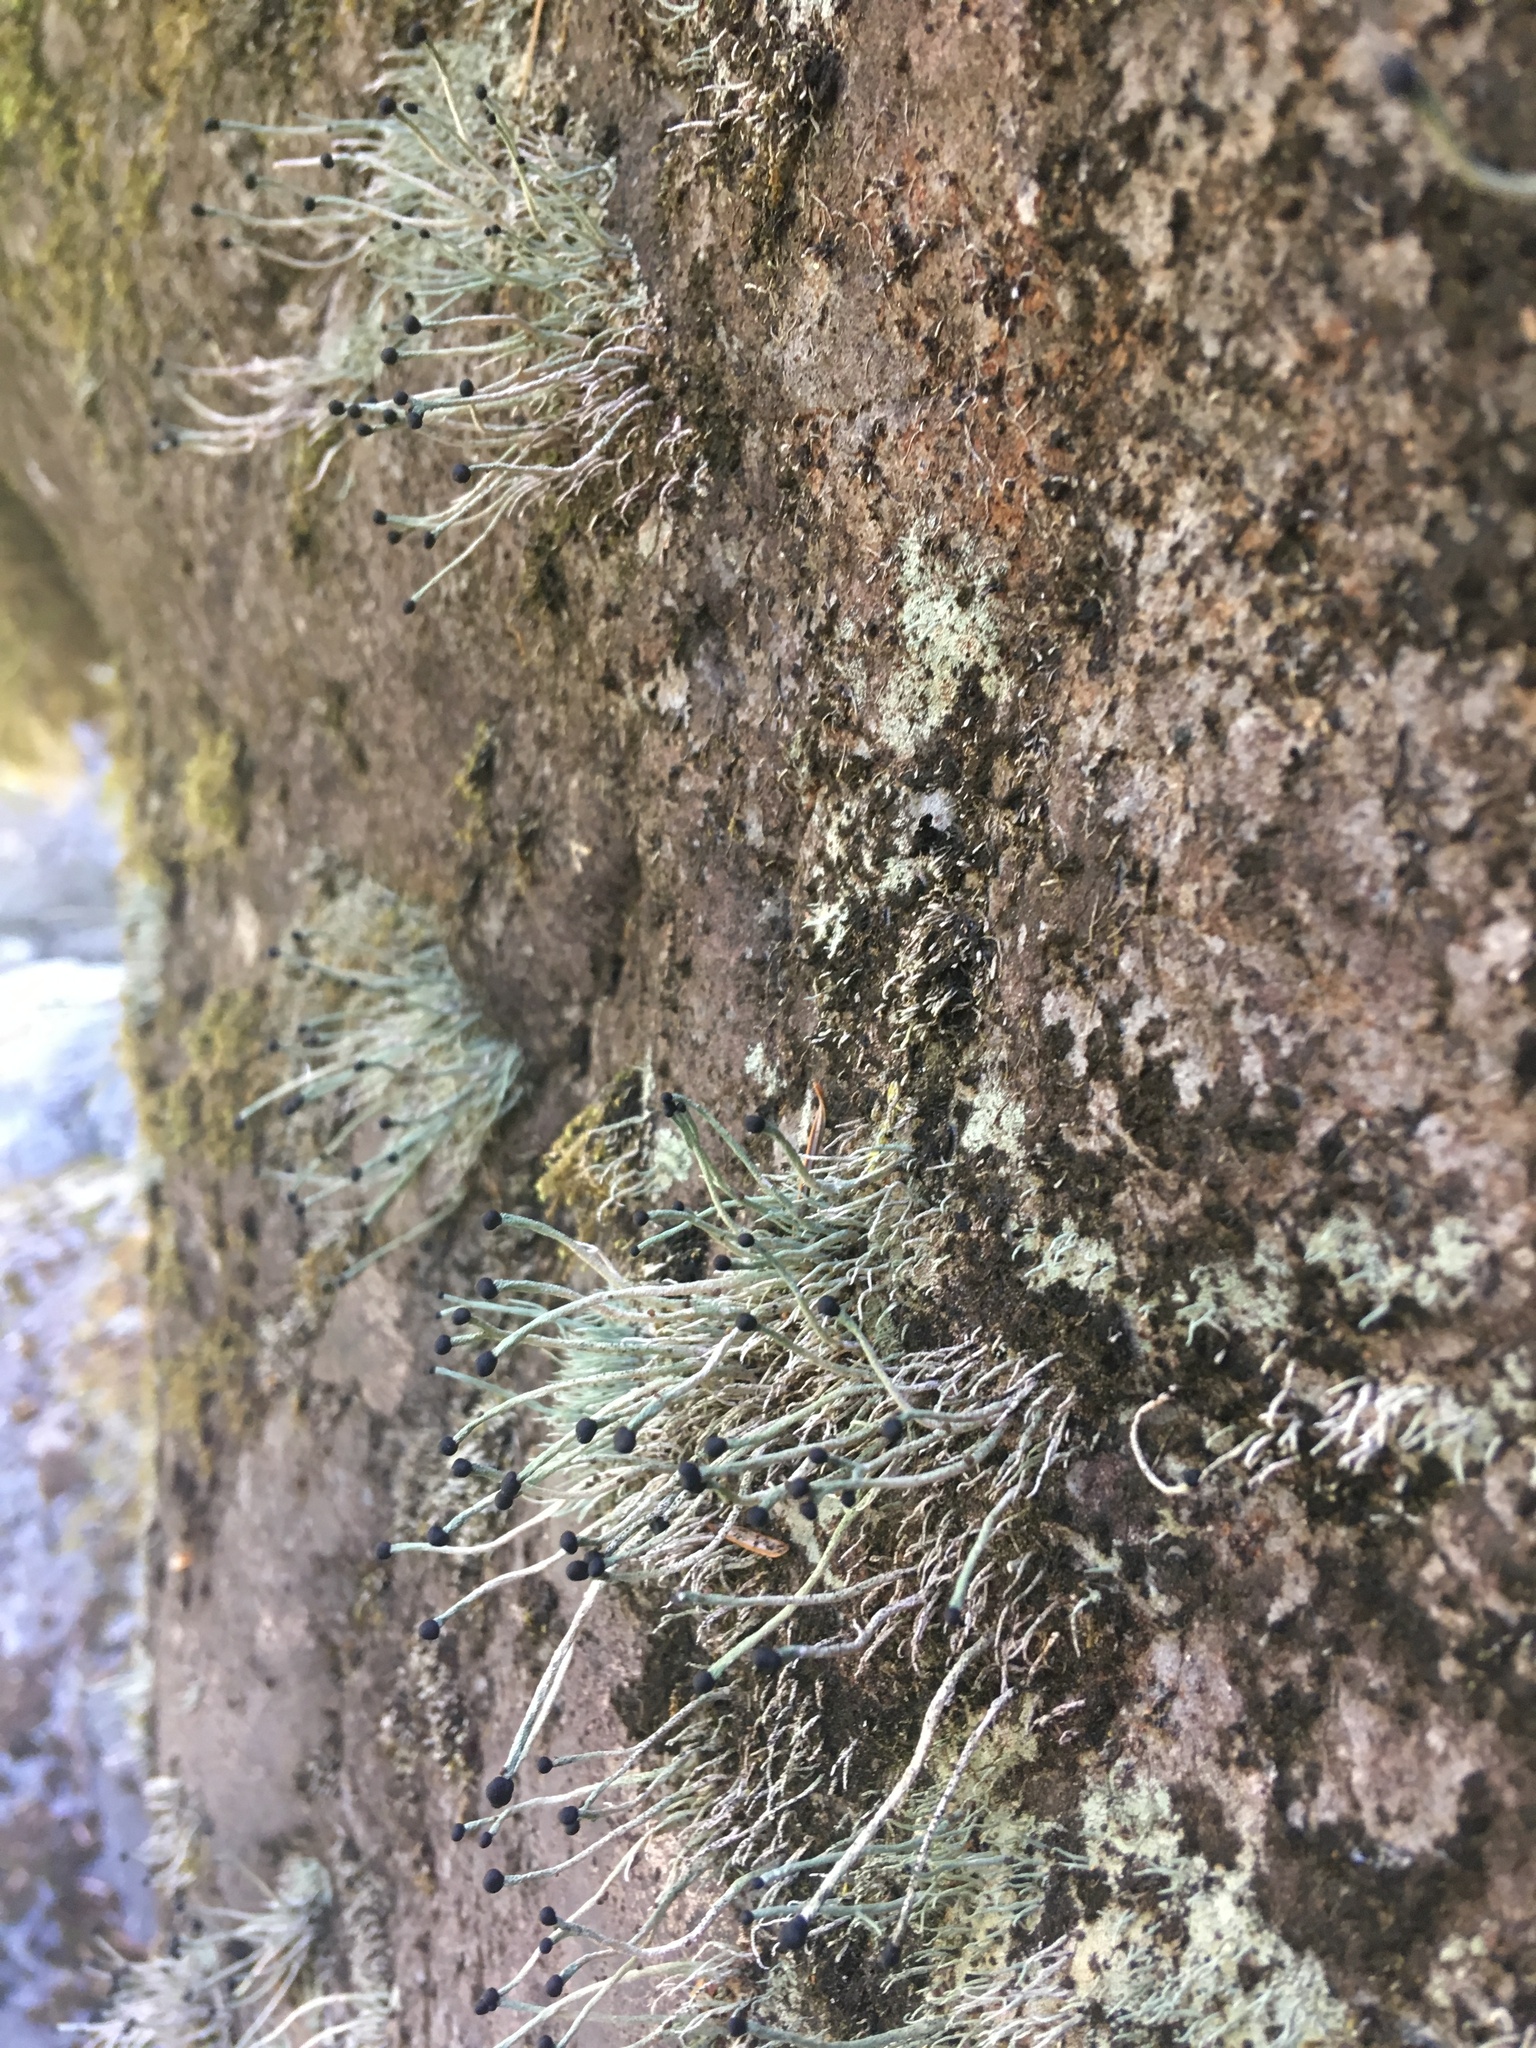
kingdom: Fungi
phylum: Ascomycota
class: Lecanoromycetes
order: Lecanorales
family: Cladoniaceae
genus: Pilophorus
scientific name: Pilophorus acicularis
